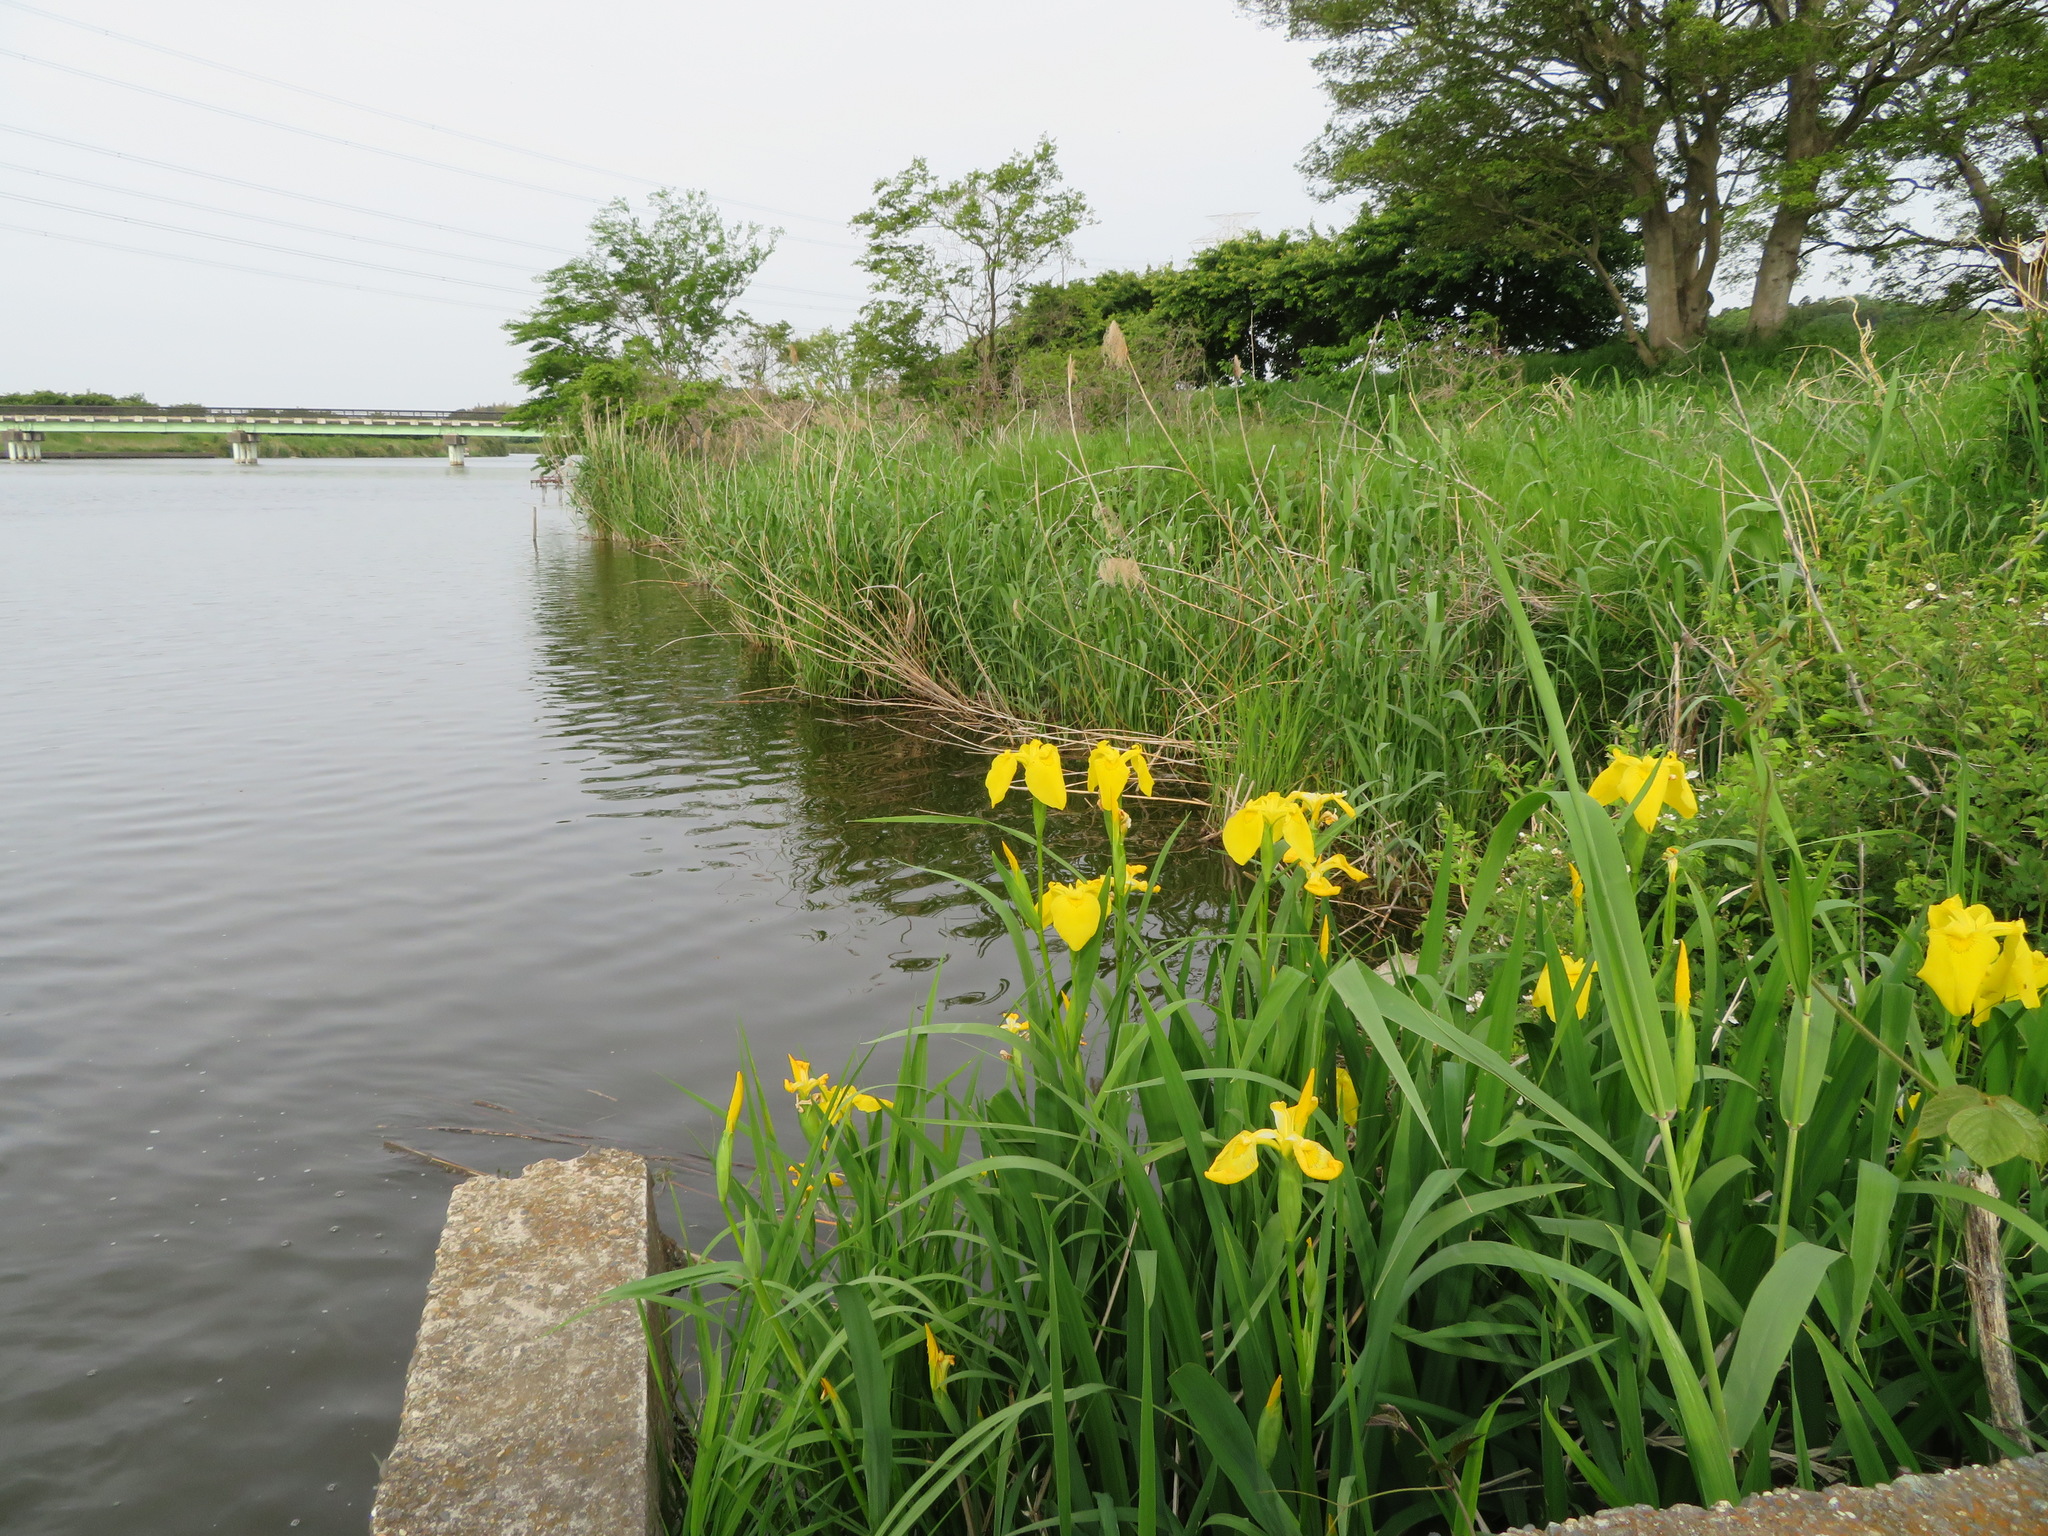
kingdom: Plantae
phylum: Tracheophyta
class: Liliopsida
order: Asparagales
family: Iridaceae
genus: Iris
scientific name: Iris pseudacorus
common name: Yellow flag
